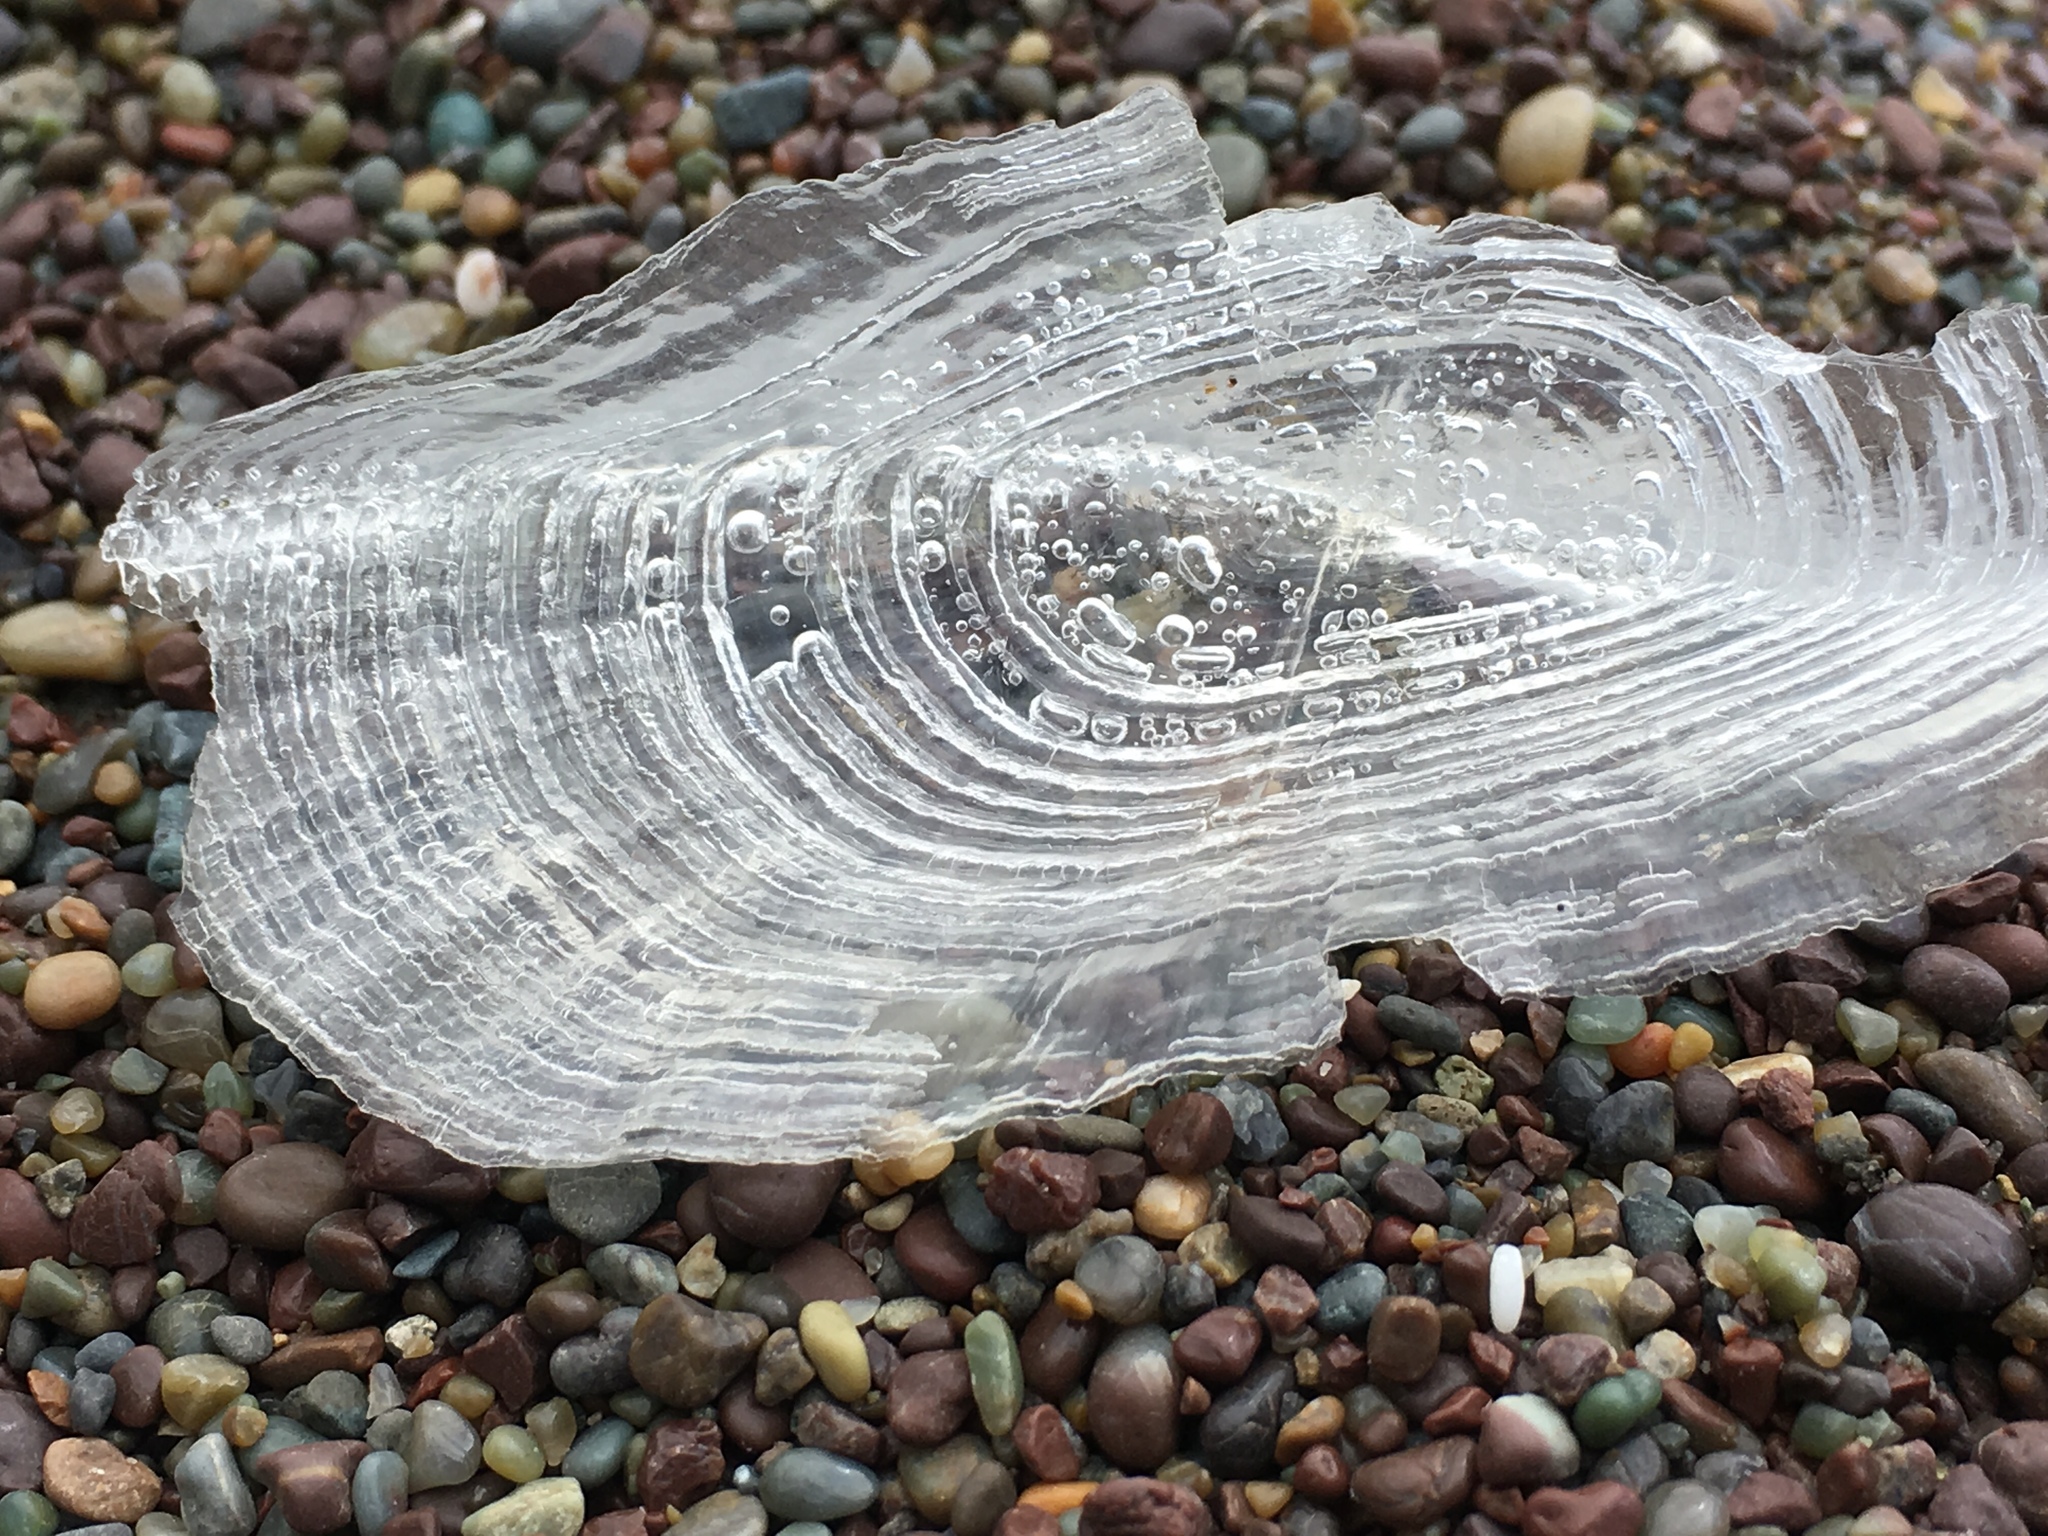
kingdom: Animalia
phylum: Cnidaria
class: Hydrozoa
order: Anthoathecata
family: Porpitidae
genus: Velella
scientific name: Velella velella
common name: By-the-wind-sailor
